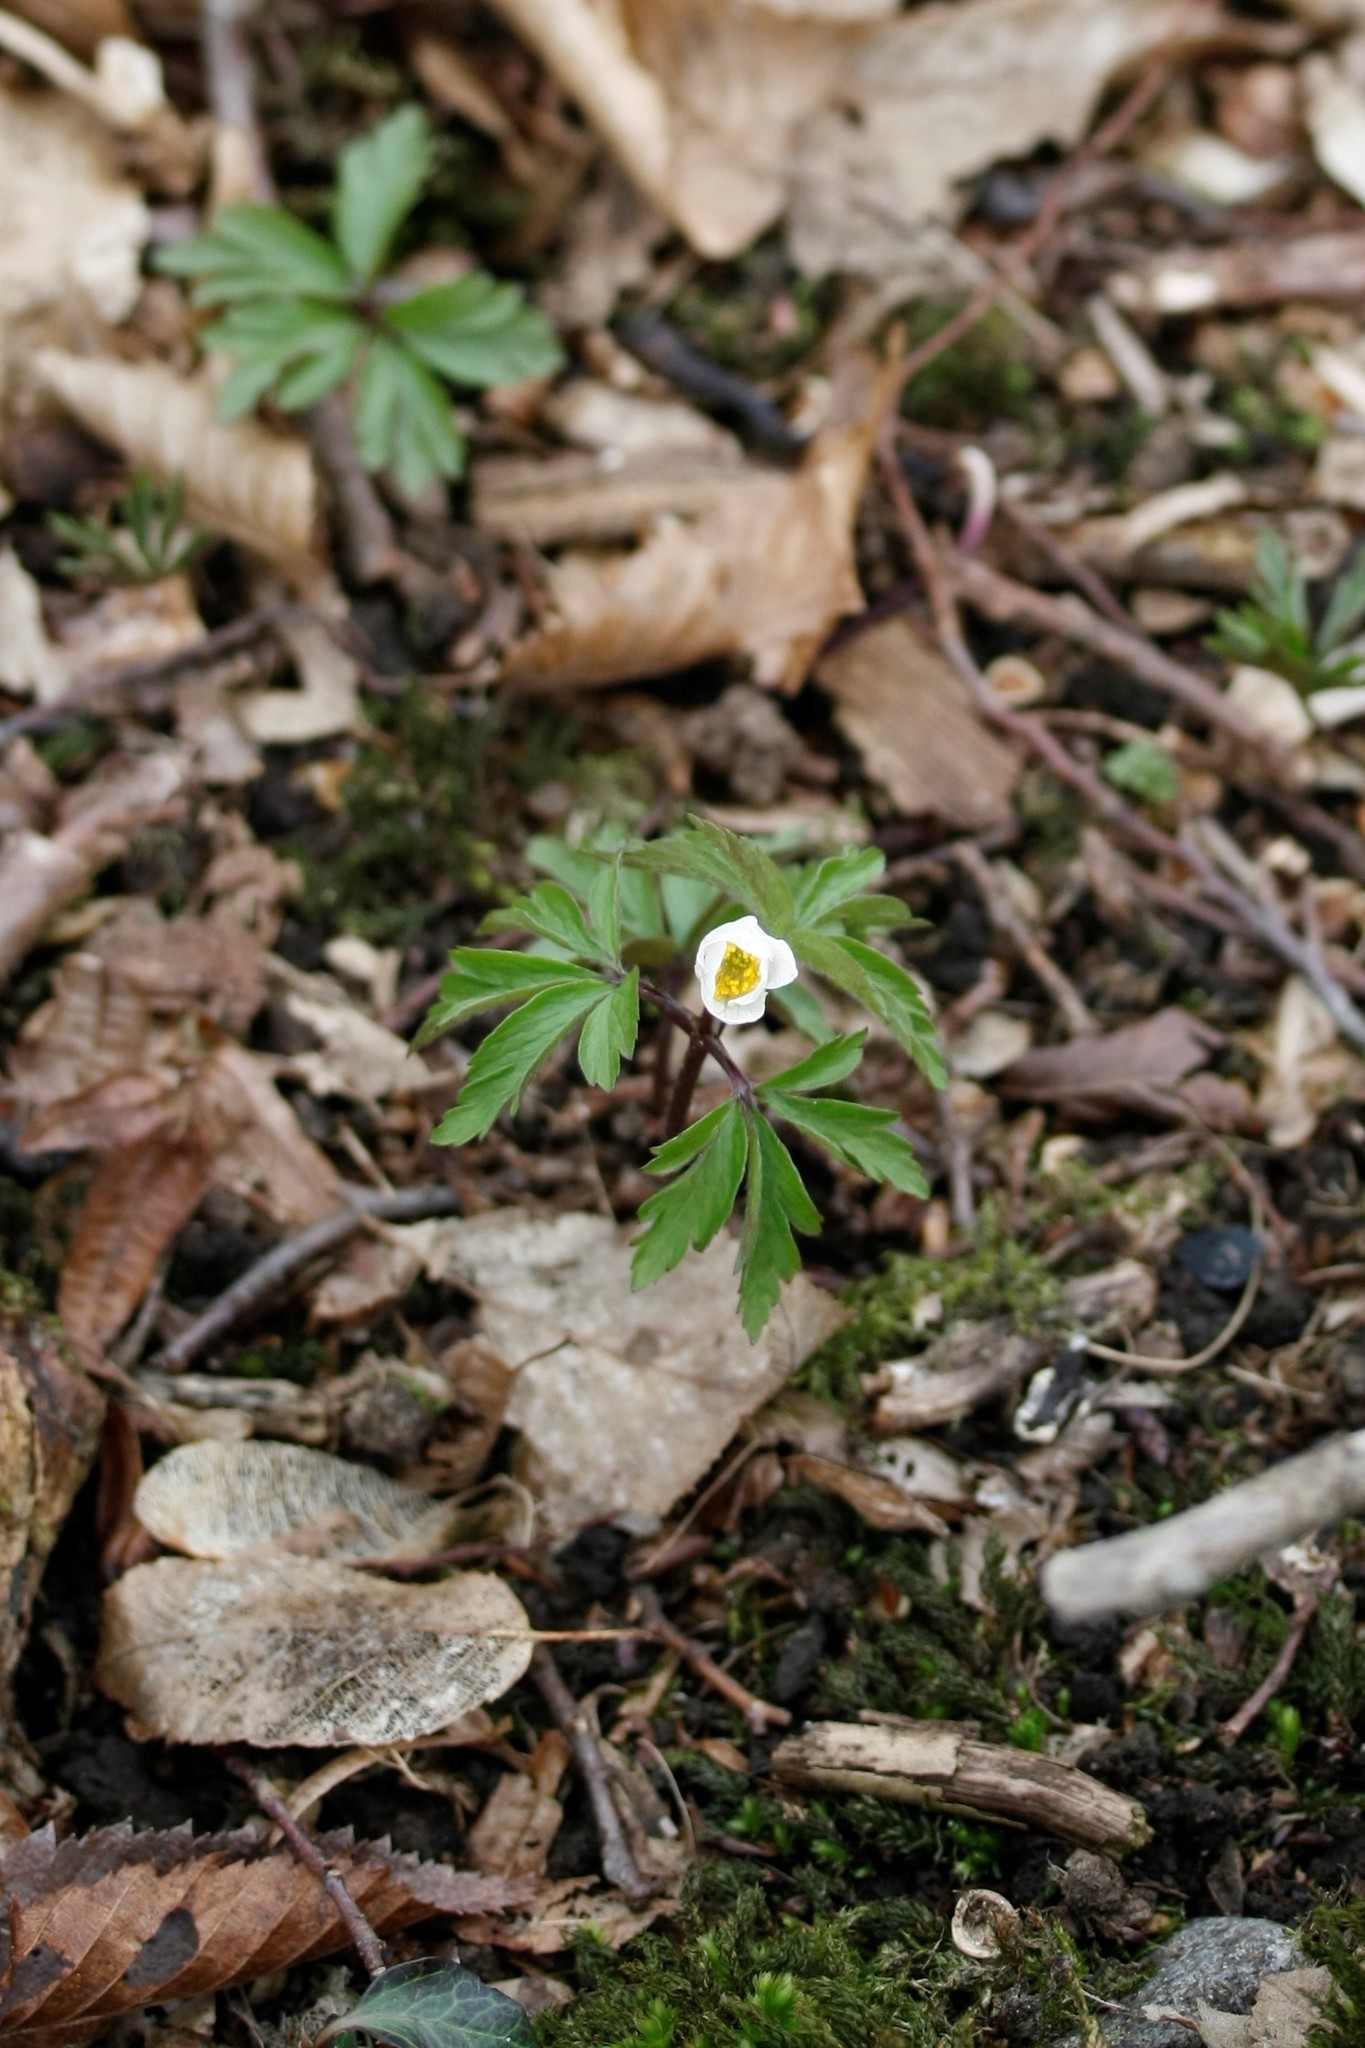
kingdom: Plantae
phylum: Tracheophyta
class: Magnoliopsida
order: Ranunculales
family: Ranunculaceae
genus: Anemone
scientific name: Anemone nemorosa
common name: Wood anemone
